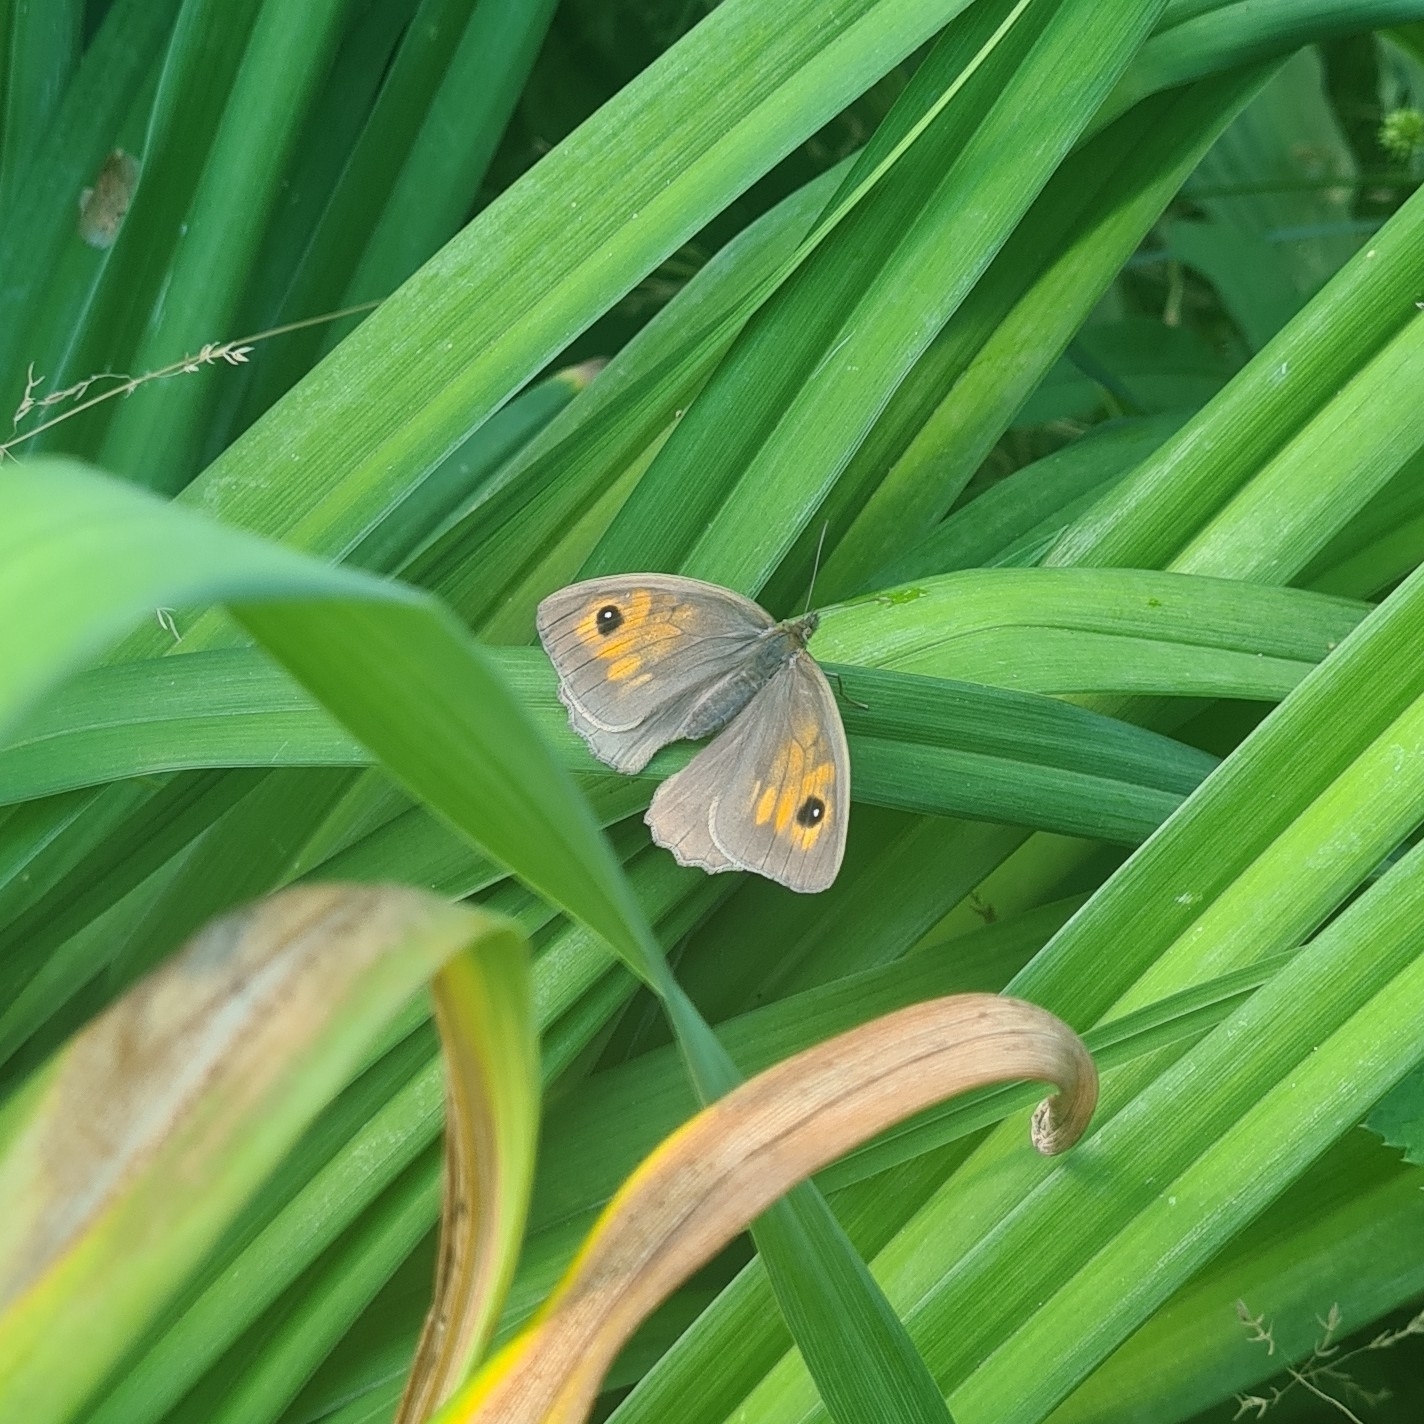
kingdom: Animalia
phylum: Arthropoda
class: Insecta
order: Lepidoptera
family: Nymphalidae
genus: Maniola
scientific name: Maniola jurtina
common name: Meadow brown
